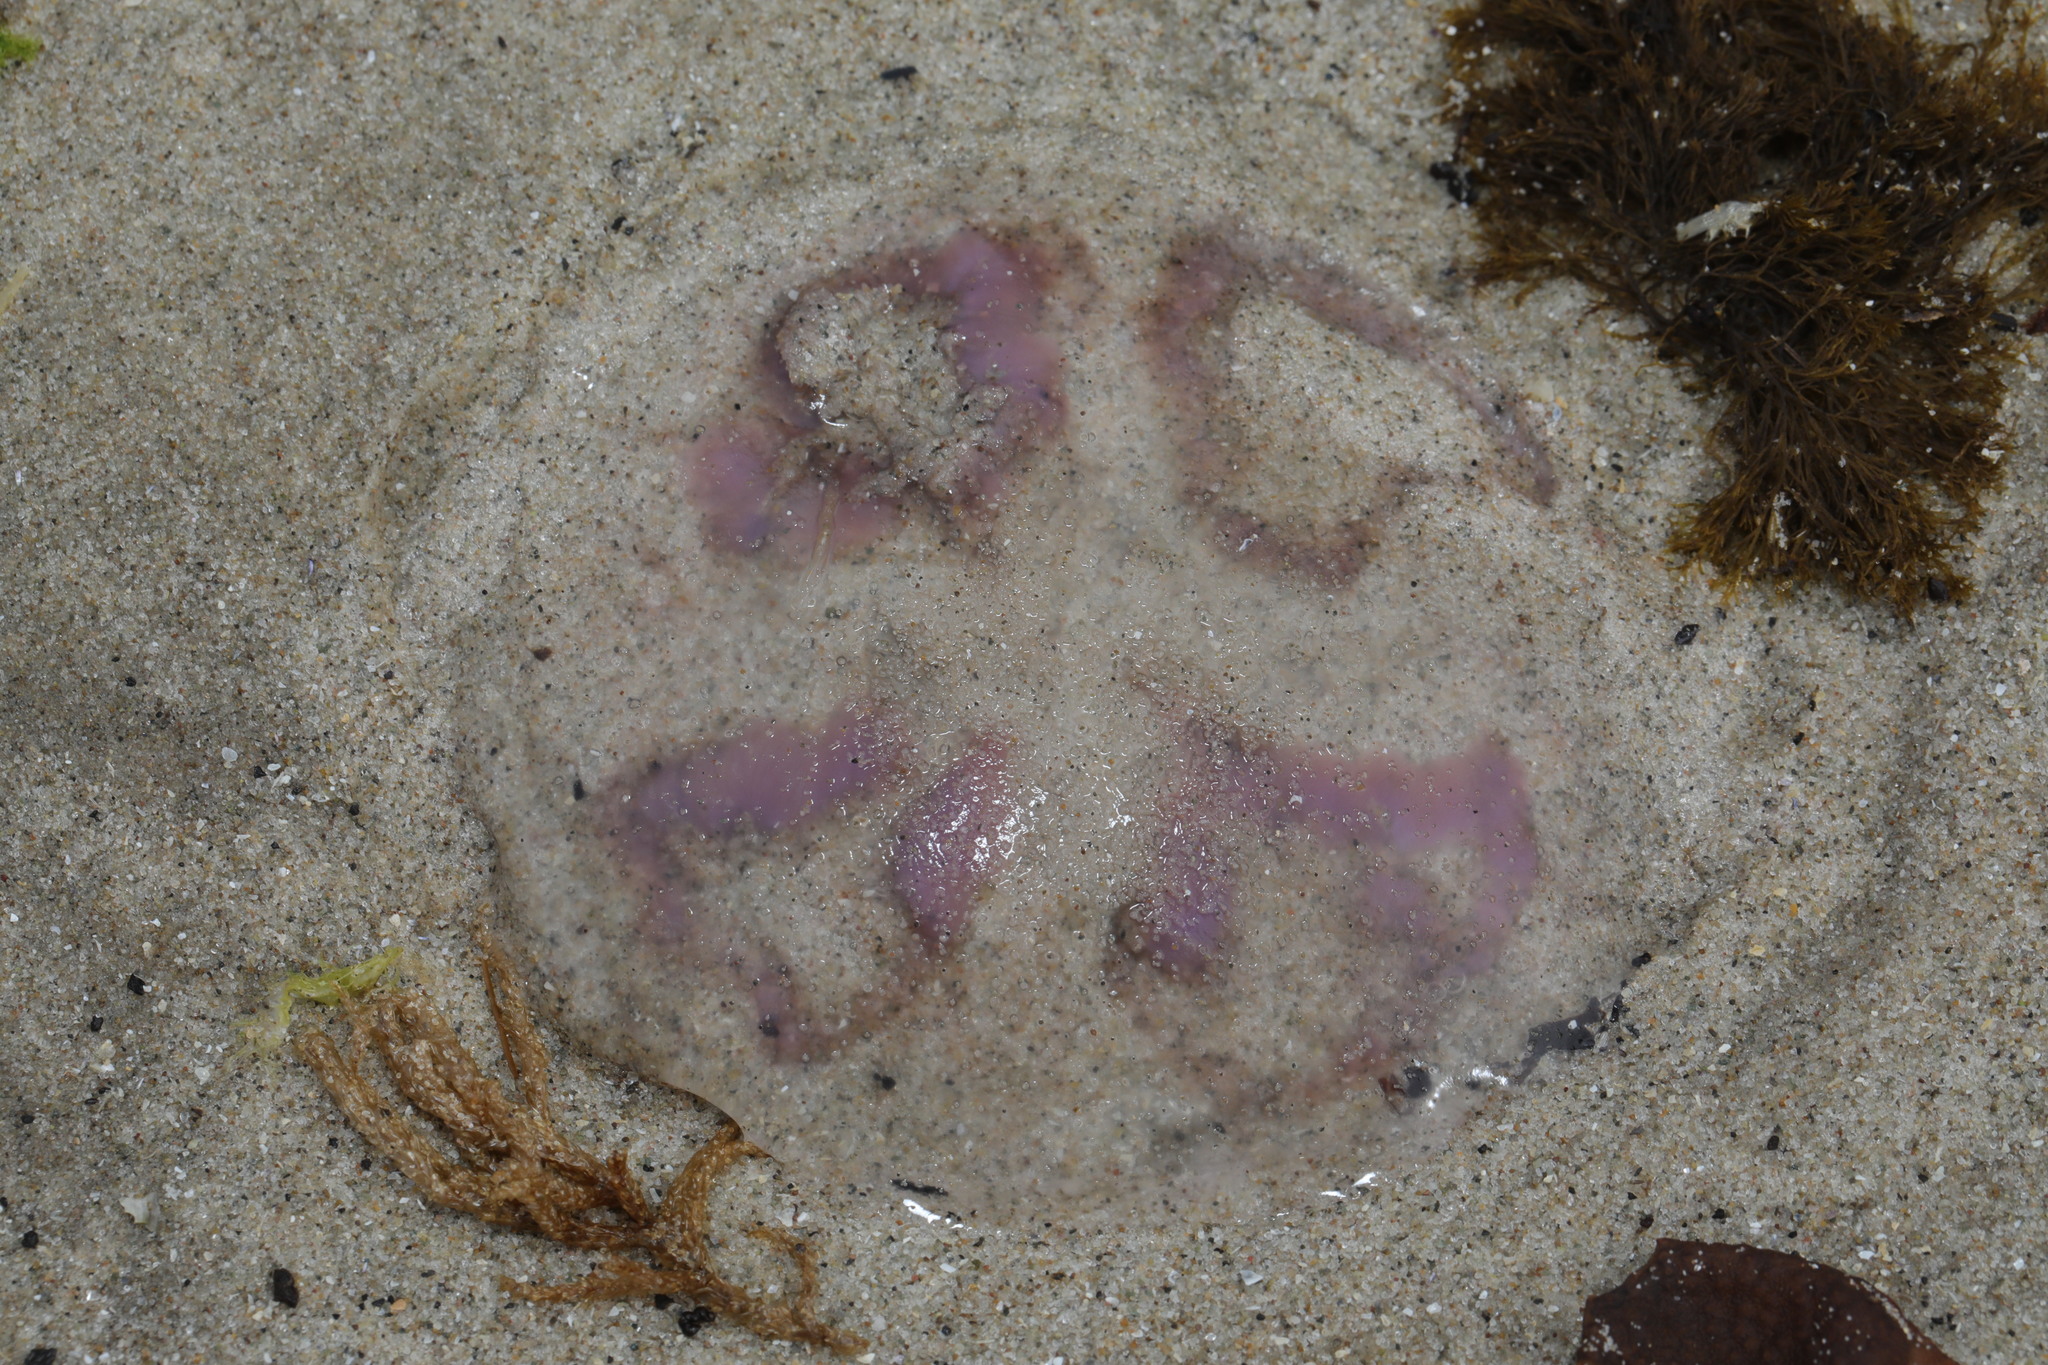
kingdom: Animalia
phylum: Cnidaria
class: Scyphozoa
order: Semaeostomeae
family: Ulmaridae
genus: Aurelia
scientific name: Aurelia aurita
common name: Moon jellyfish
